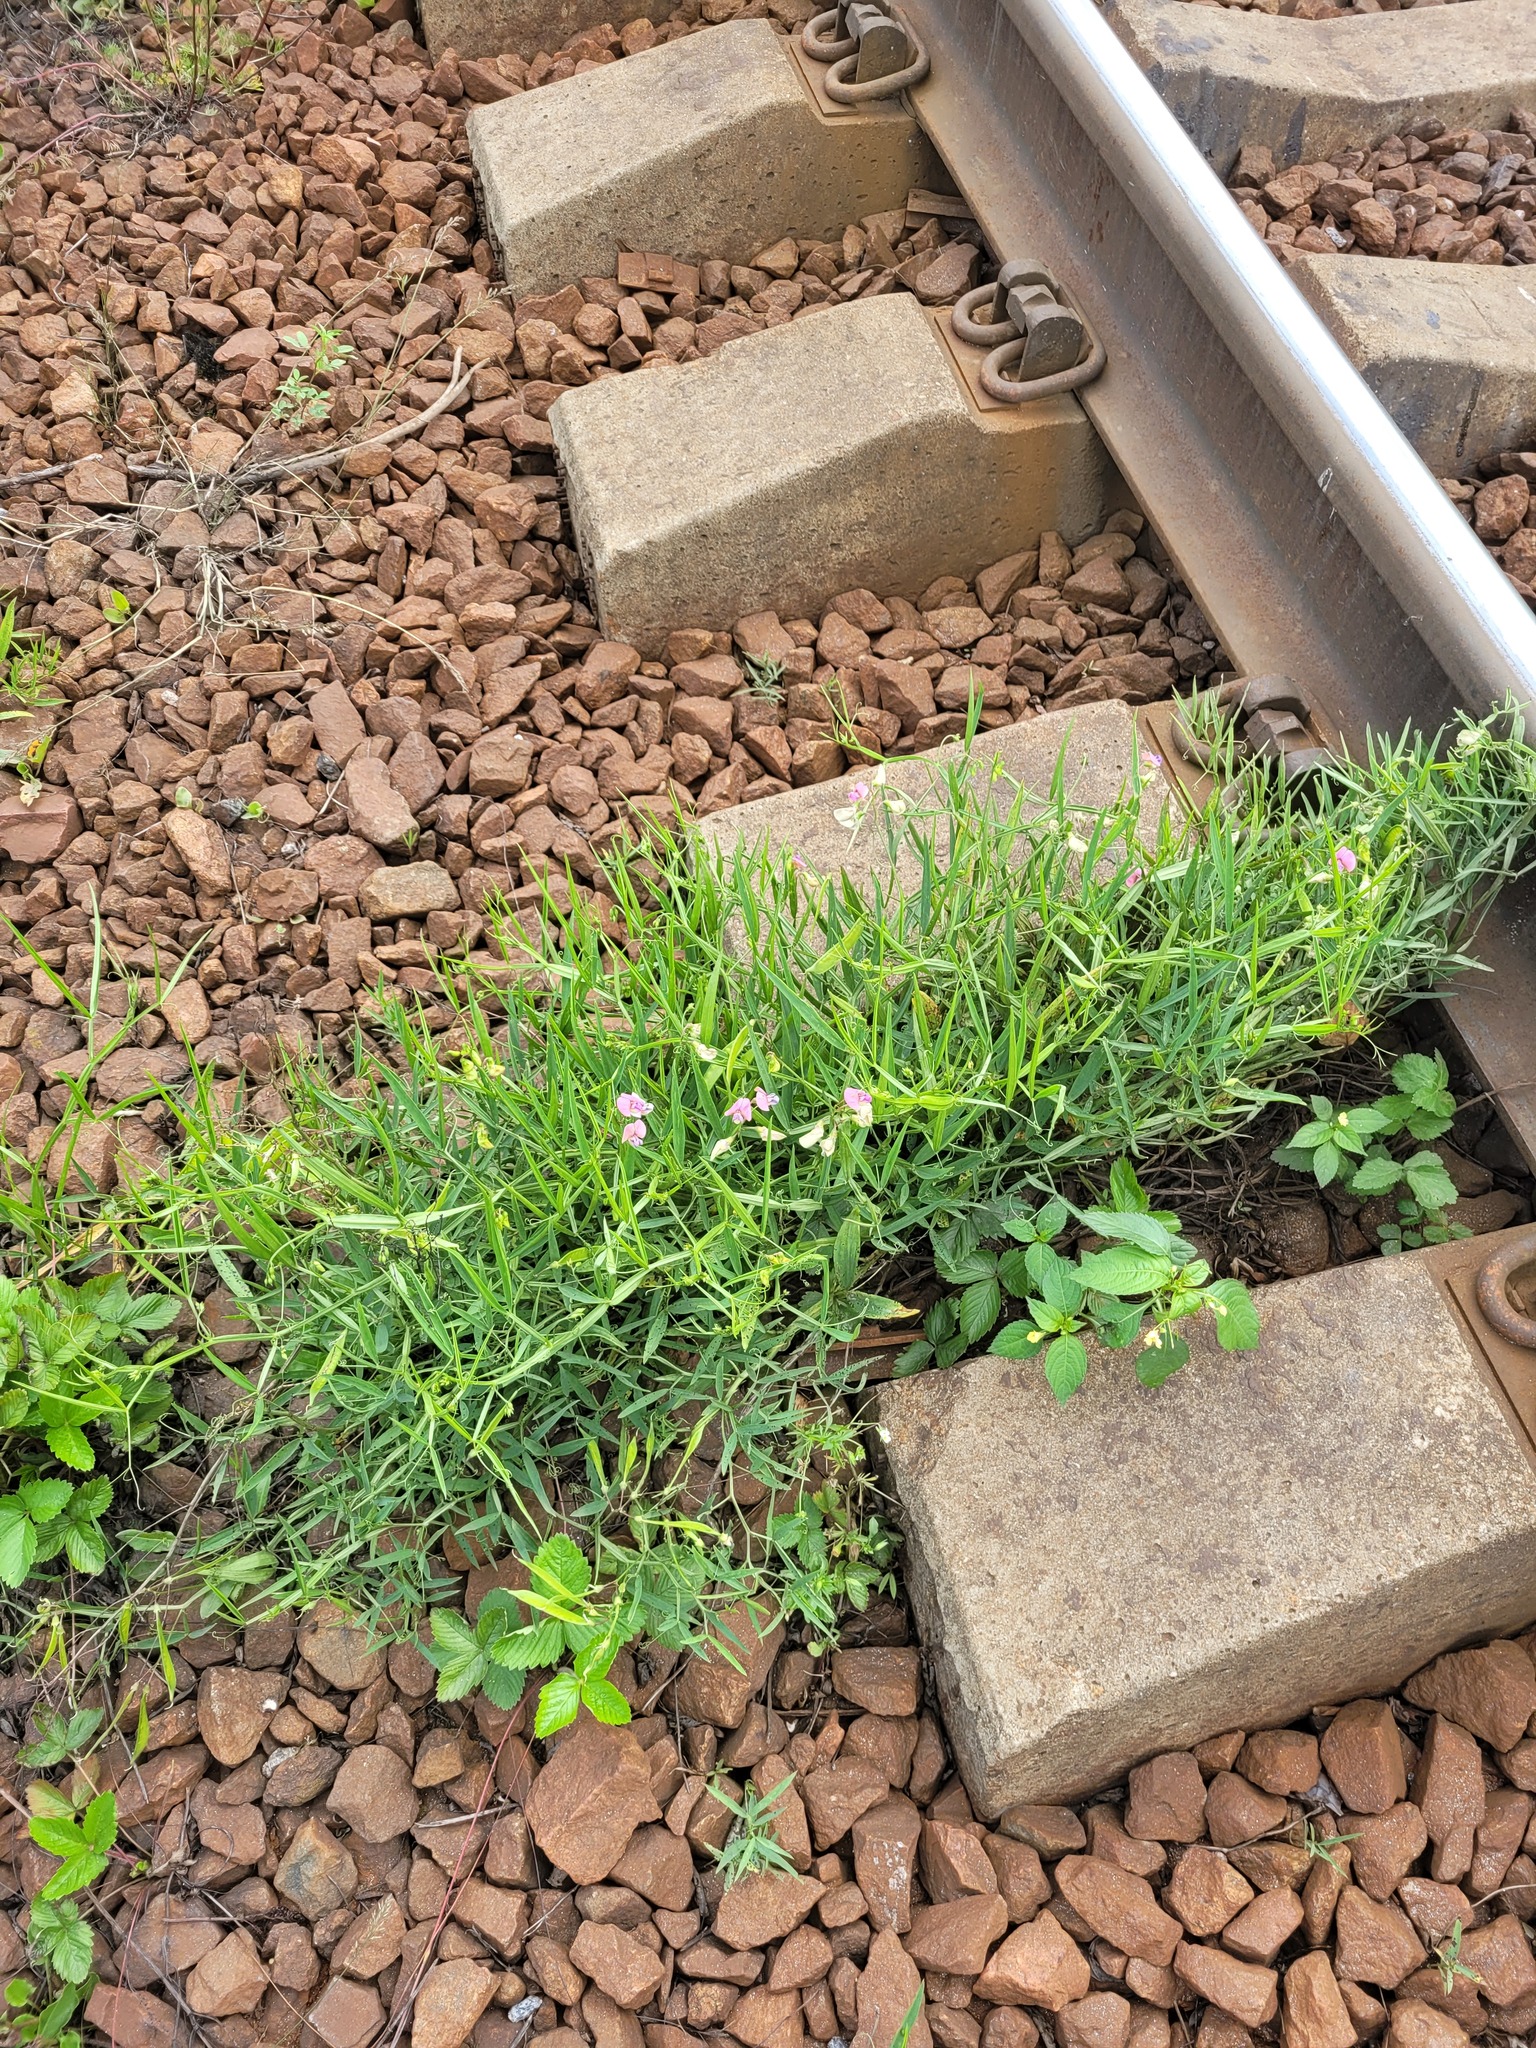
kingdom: Plantae
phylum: Tracheophyta
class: Magnoliopsida
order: Fabales
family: Fabaceae
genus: Lathyrus
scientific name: Lathyrus sylvestris
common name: Flat pea
